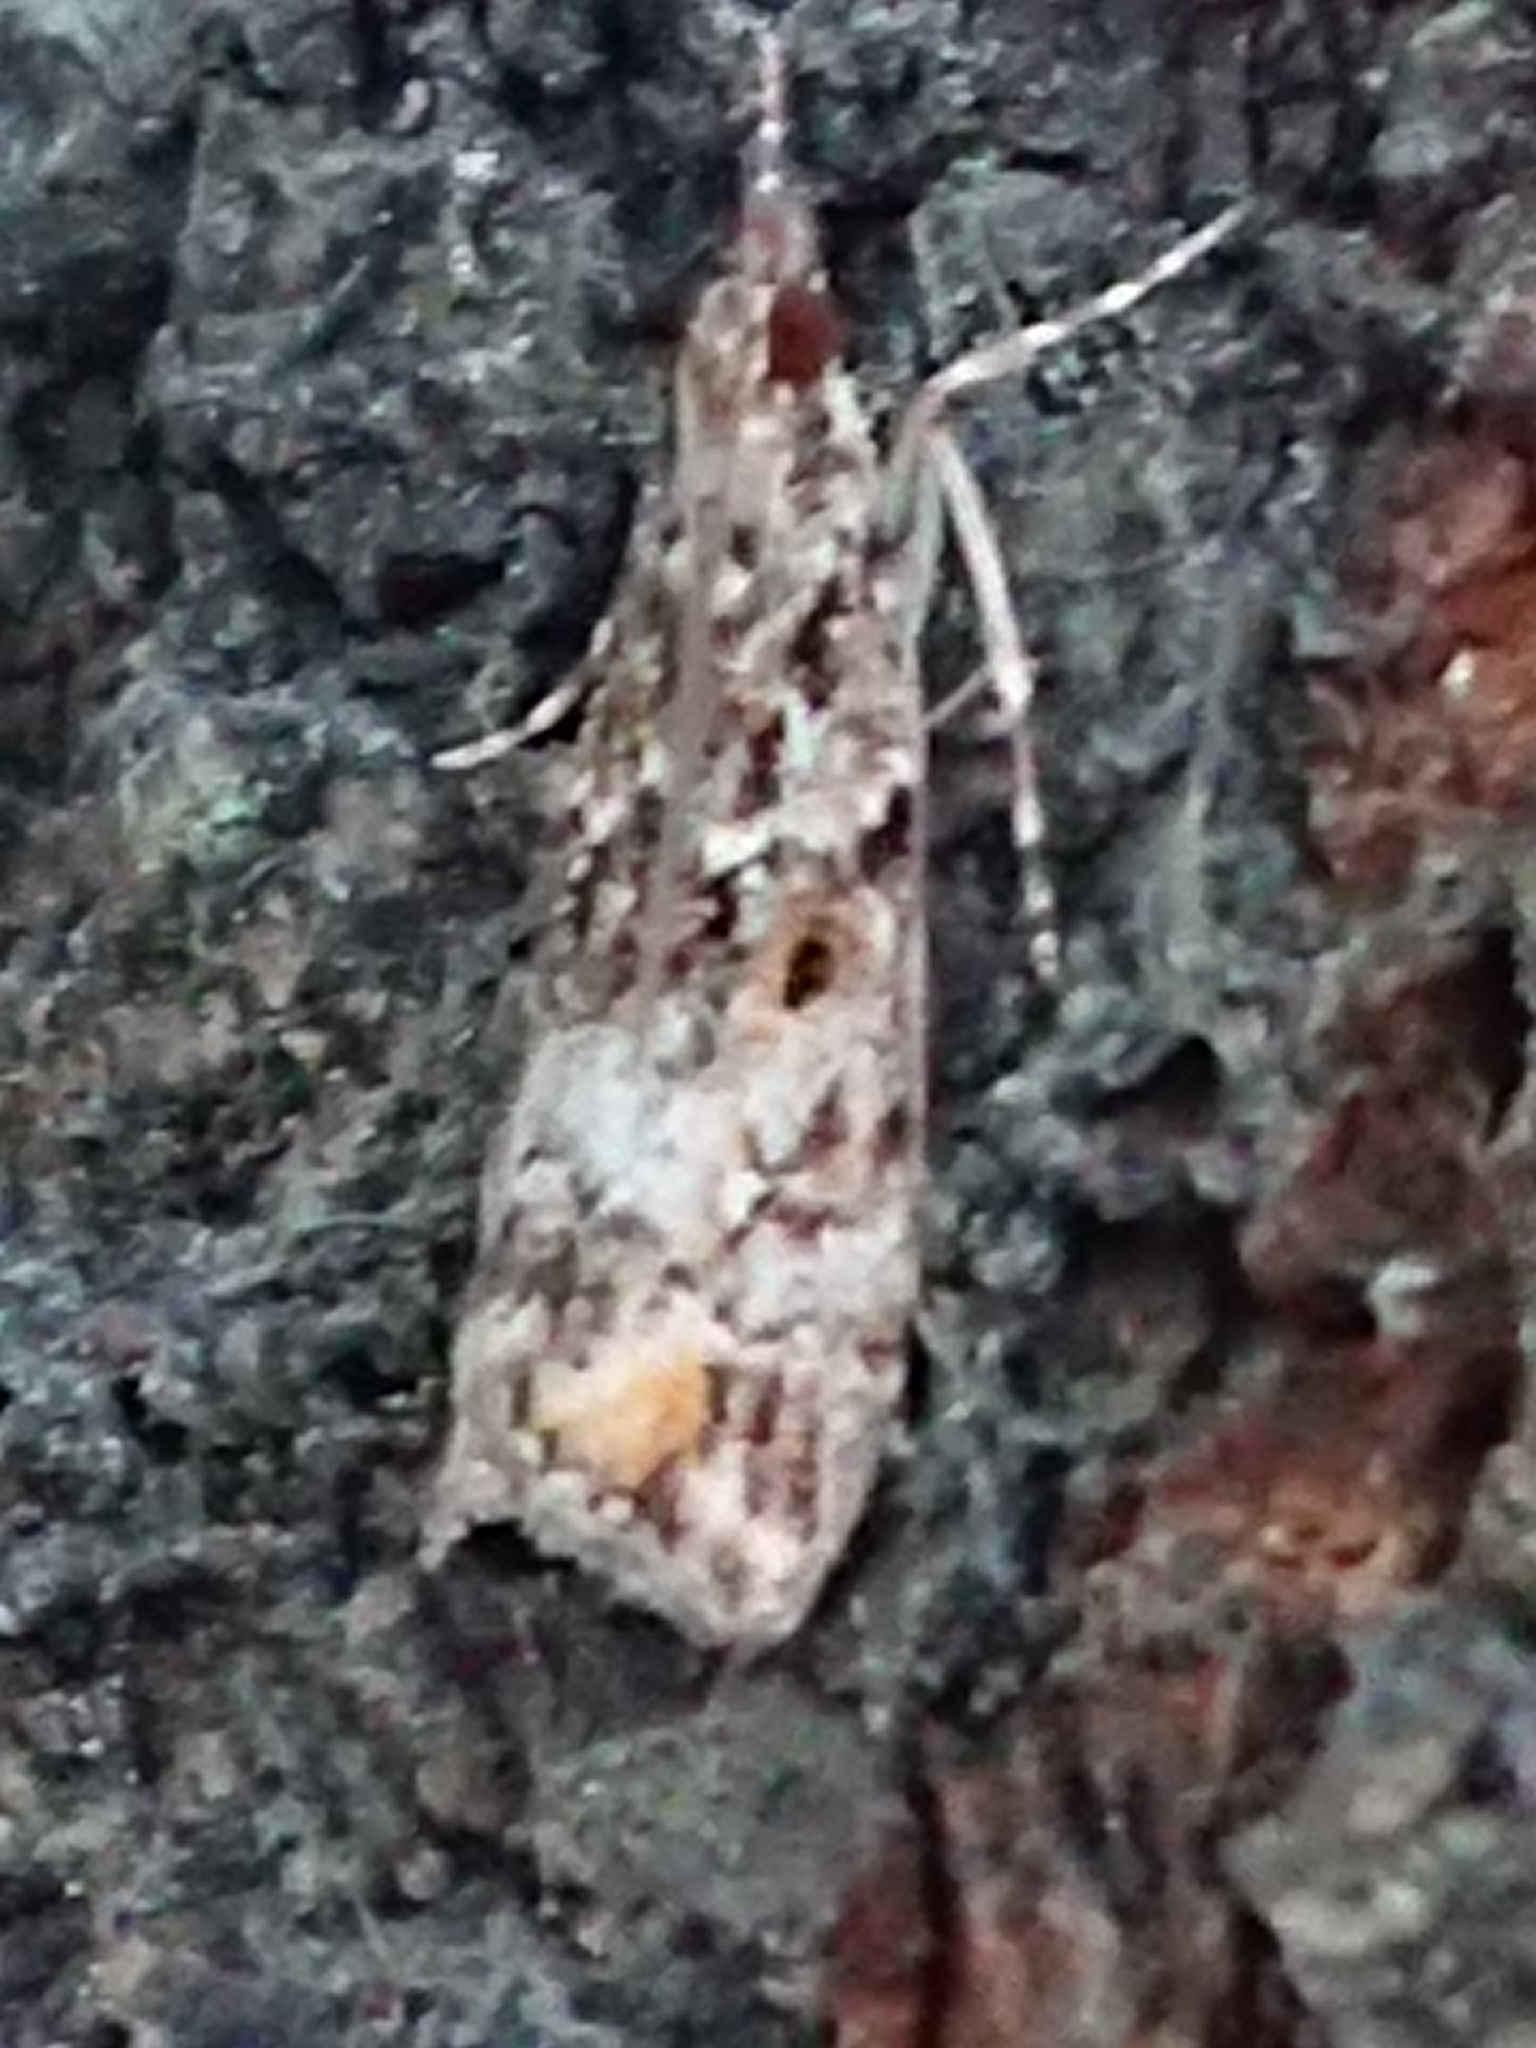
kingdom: Animalia
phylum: Arthropoda
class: Insecta
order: Lepidoptera
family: Crambidae
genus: Eudonia
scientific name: Eudonia minualis
